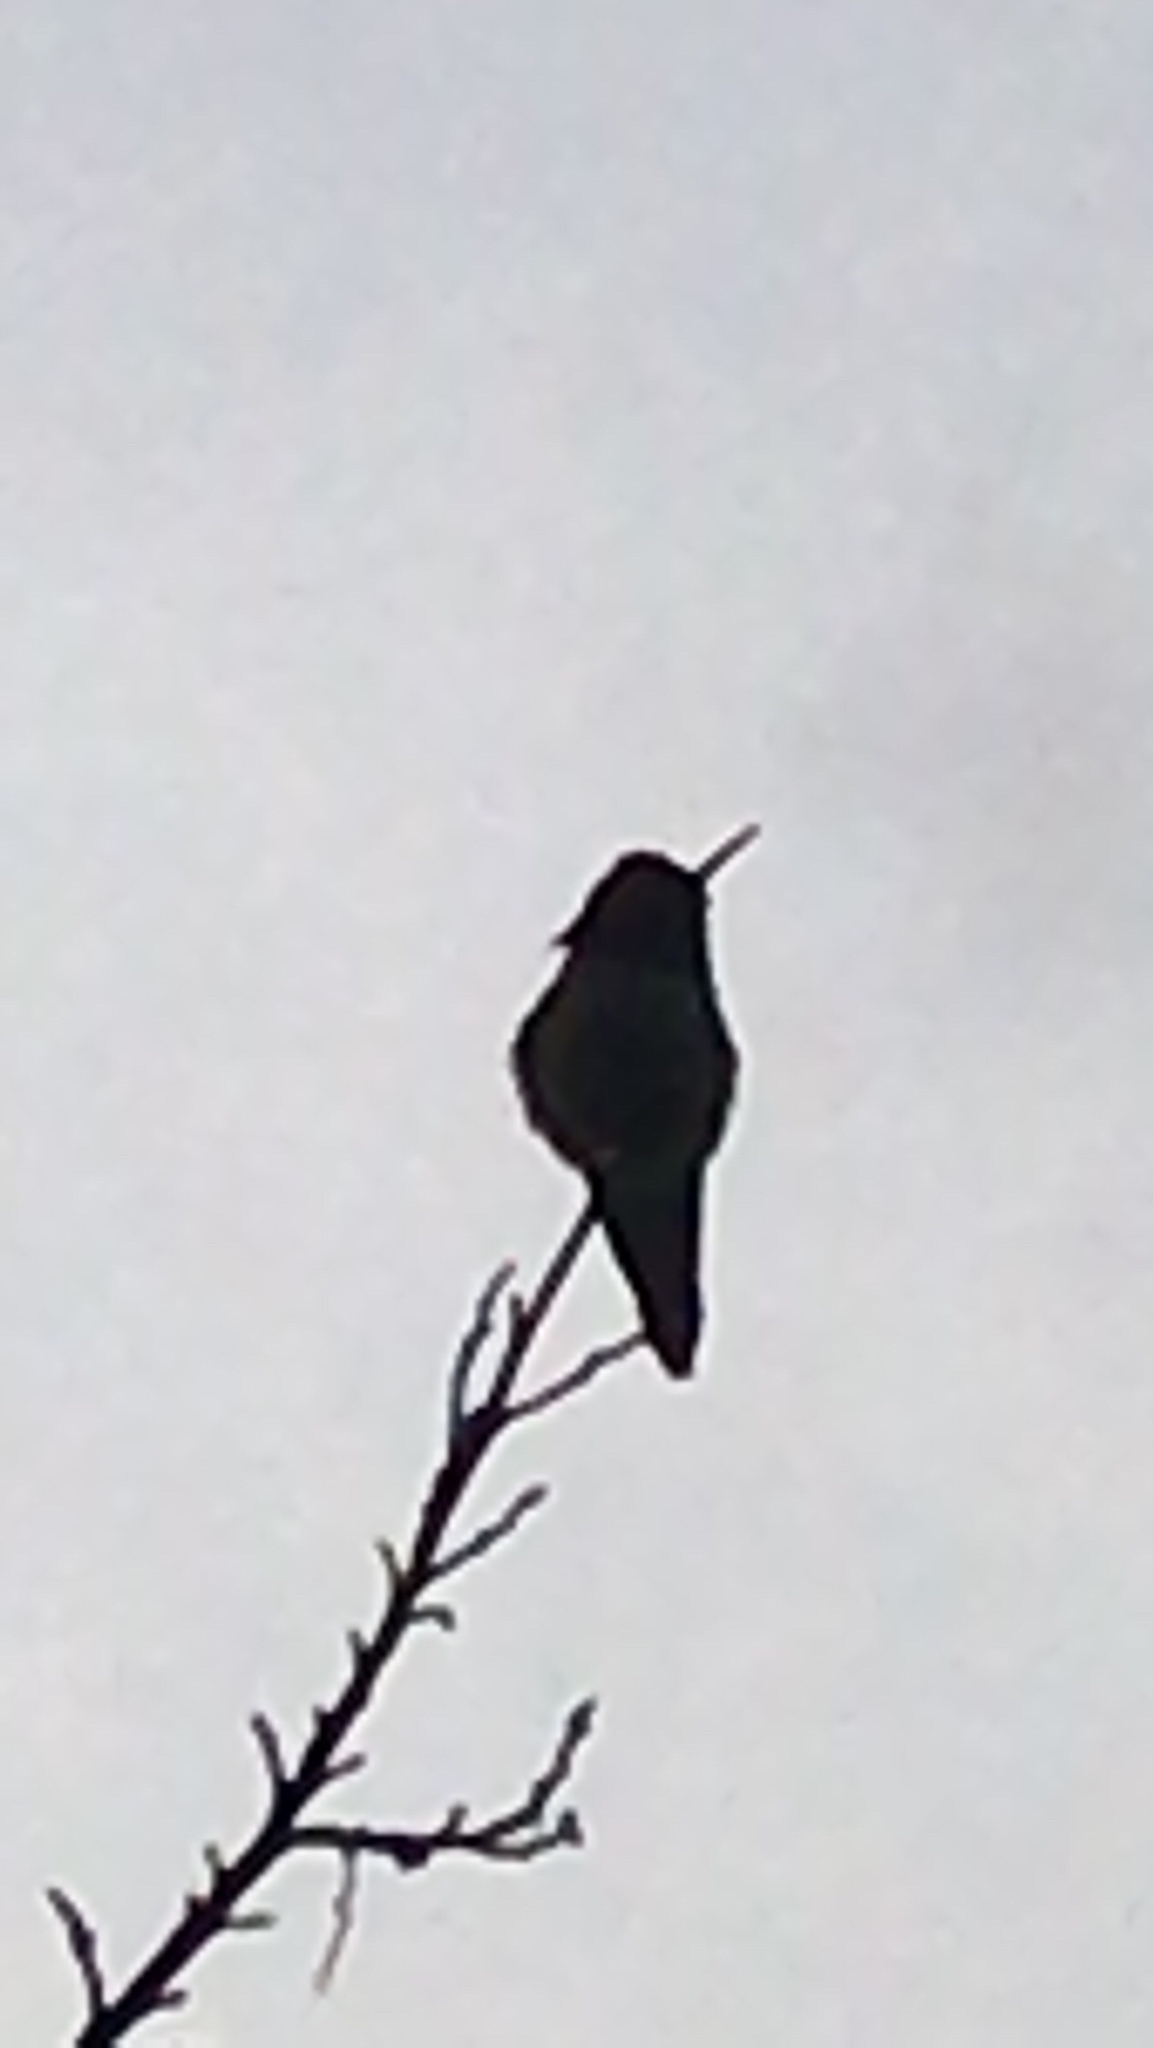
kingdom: Animalia
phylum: Chordata
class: Aves
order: Apodiformes
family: Trochilidae
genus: Calypte
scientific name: Calypte anna
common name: Anna's hummingbird
